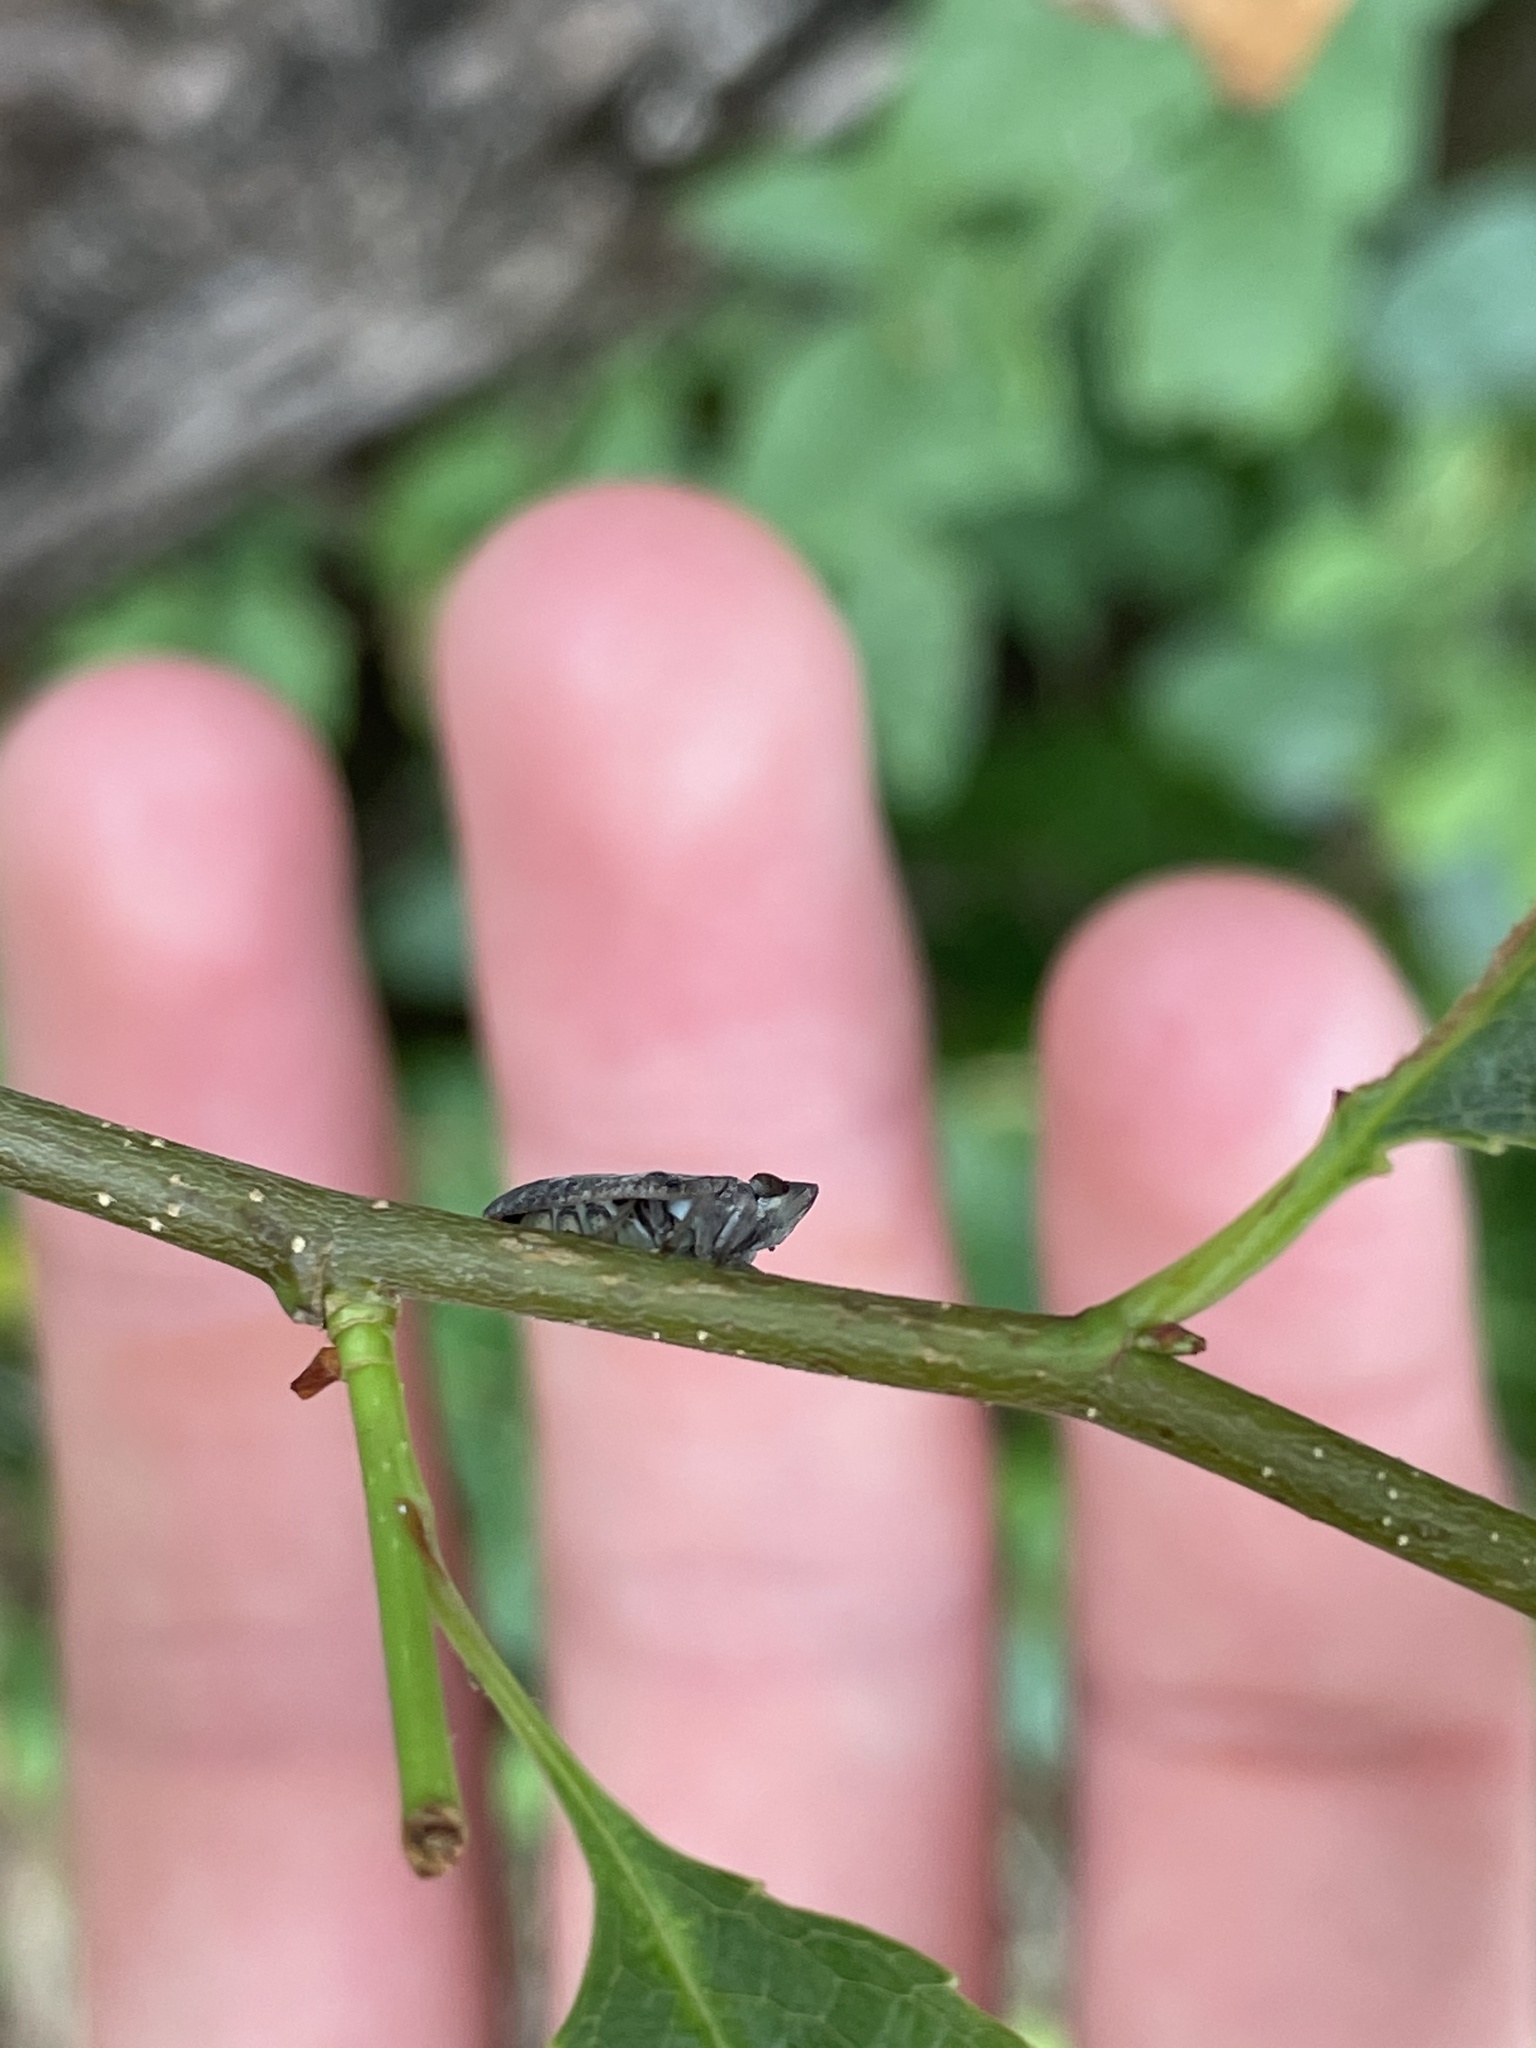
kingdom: Animalia
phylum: Arthropoda
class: Insecta
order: Hemiptera
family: Issidae
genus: Fowlerium
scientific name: Fowlerium acutum
